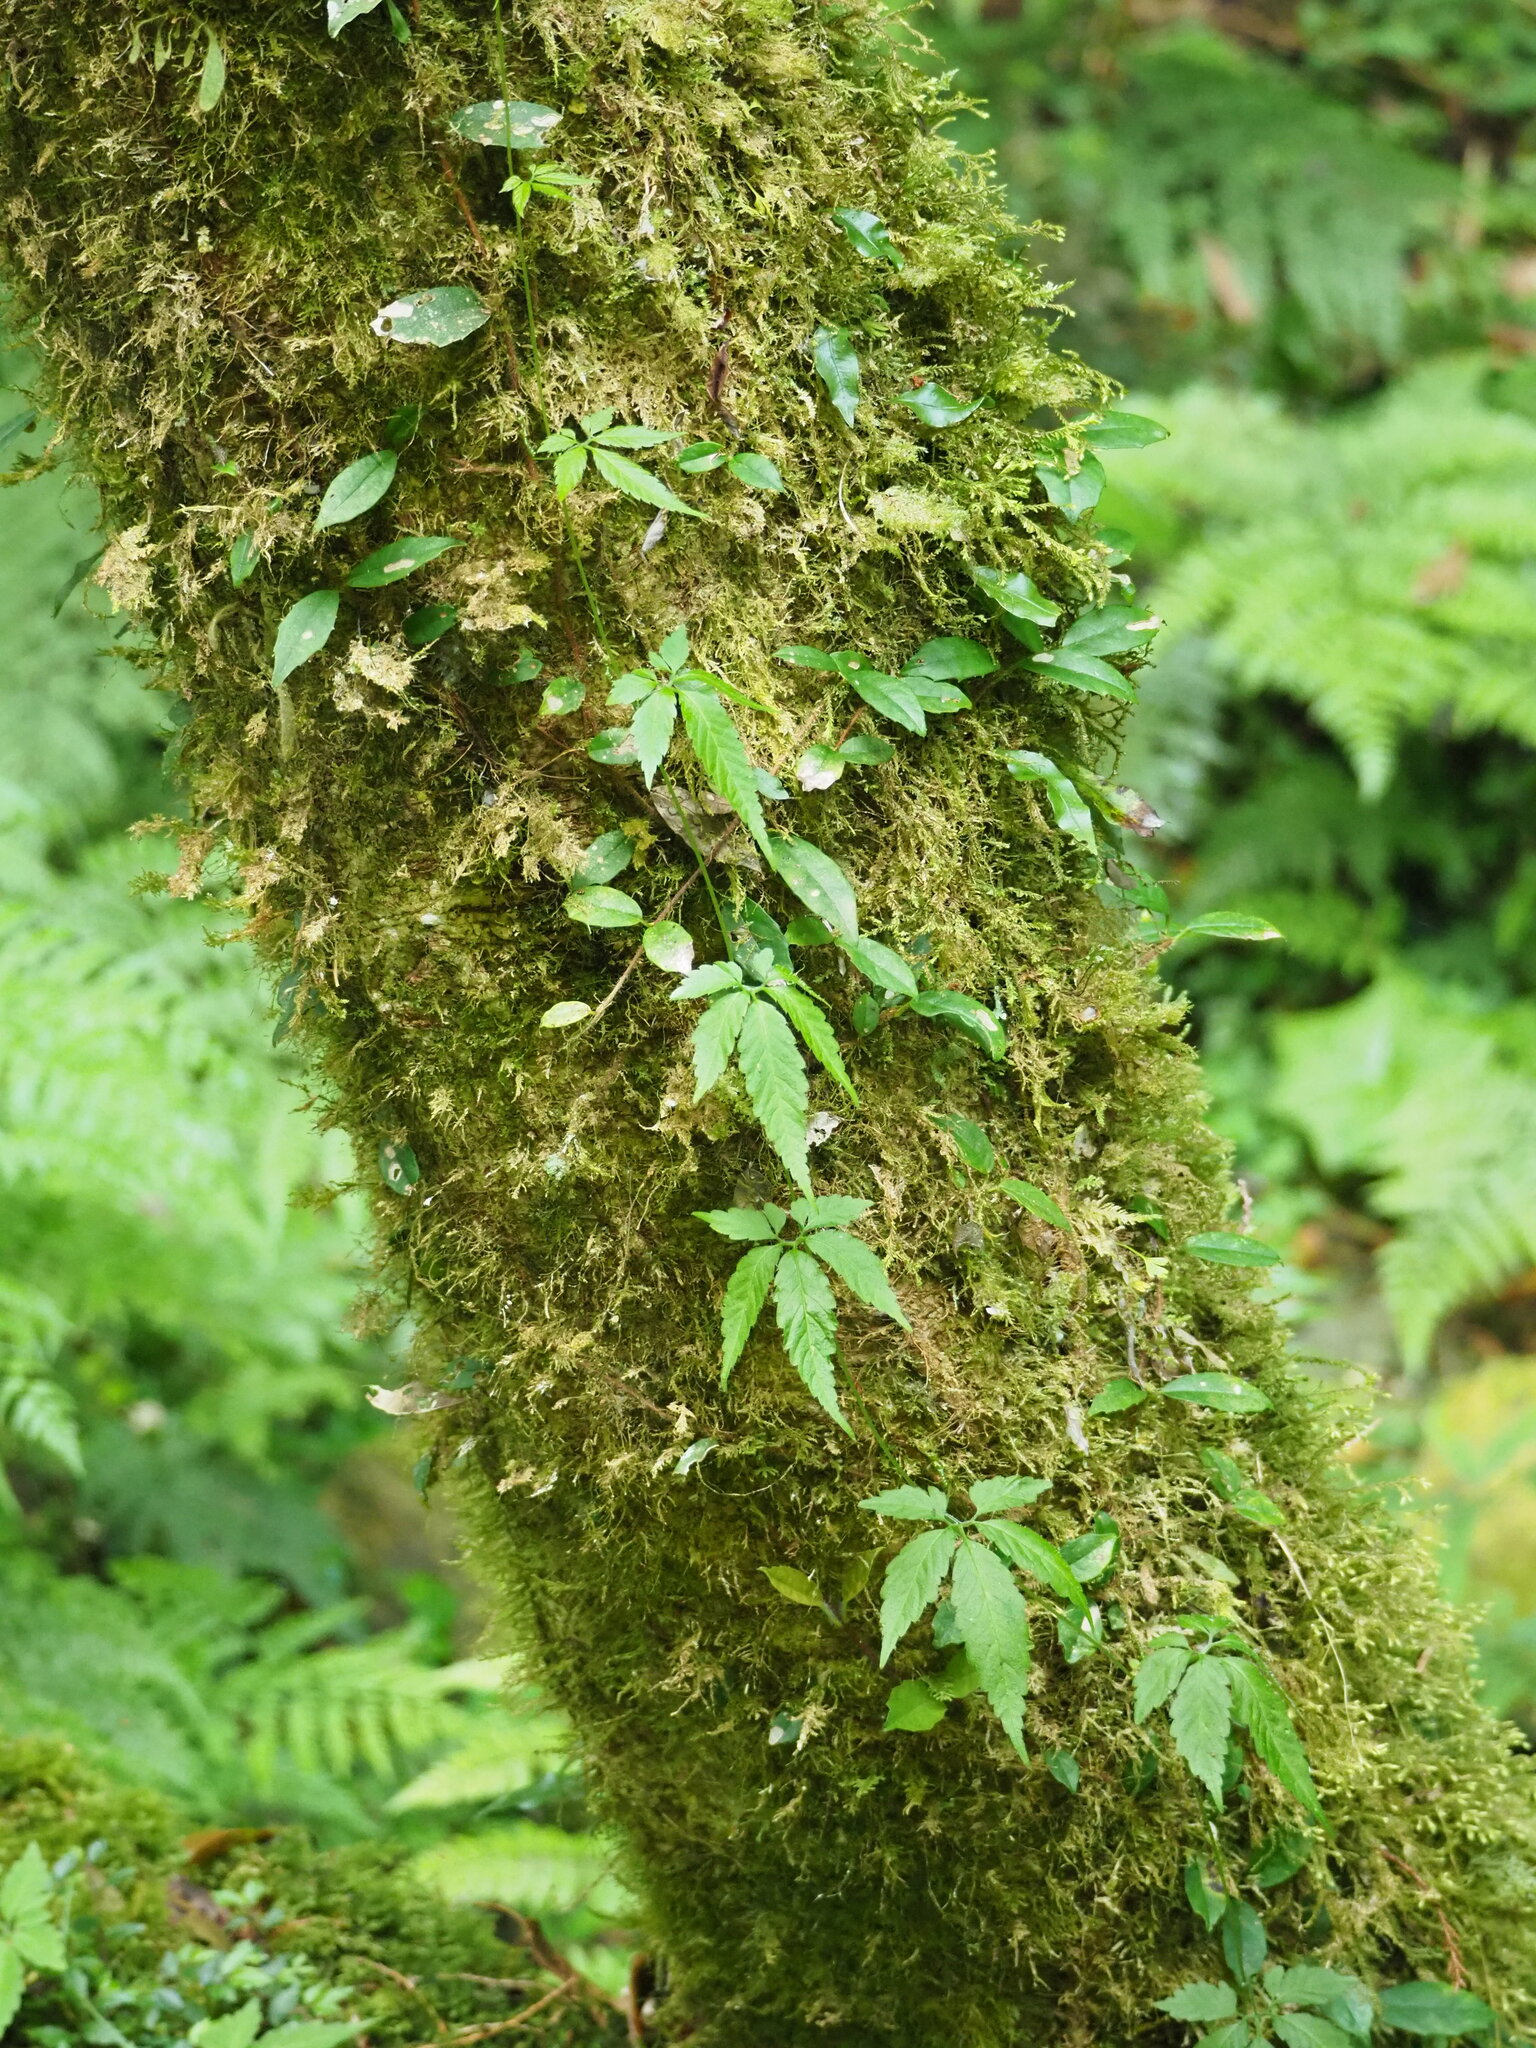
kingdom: Plantae
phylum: Tracheophyta
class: Magnoliopsida
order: Cucurbitales
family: Cucurbitaceae
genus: Gynostemma
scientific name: Gynostemma pentaphyllum
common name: Gynostemma
